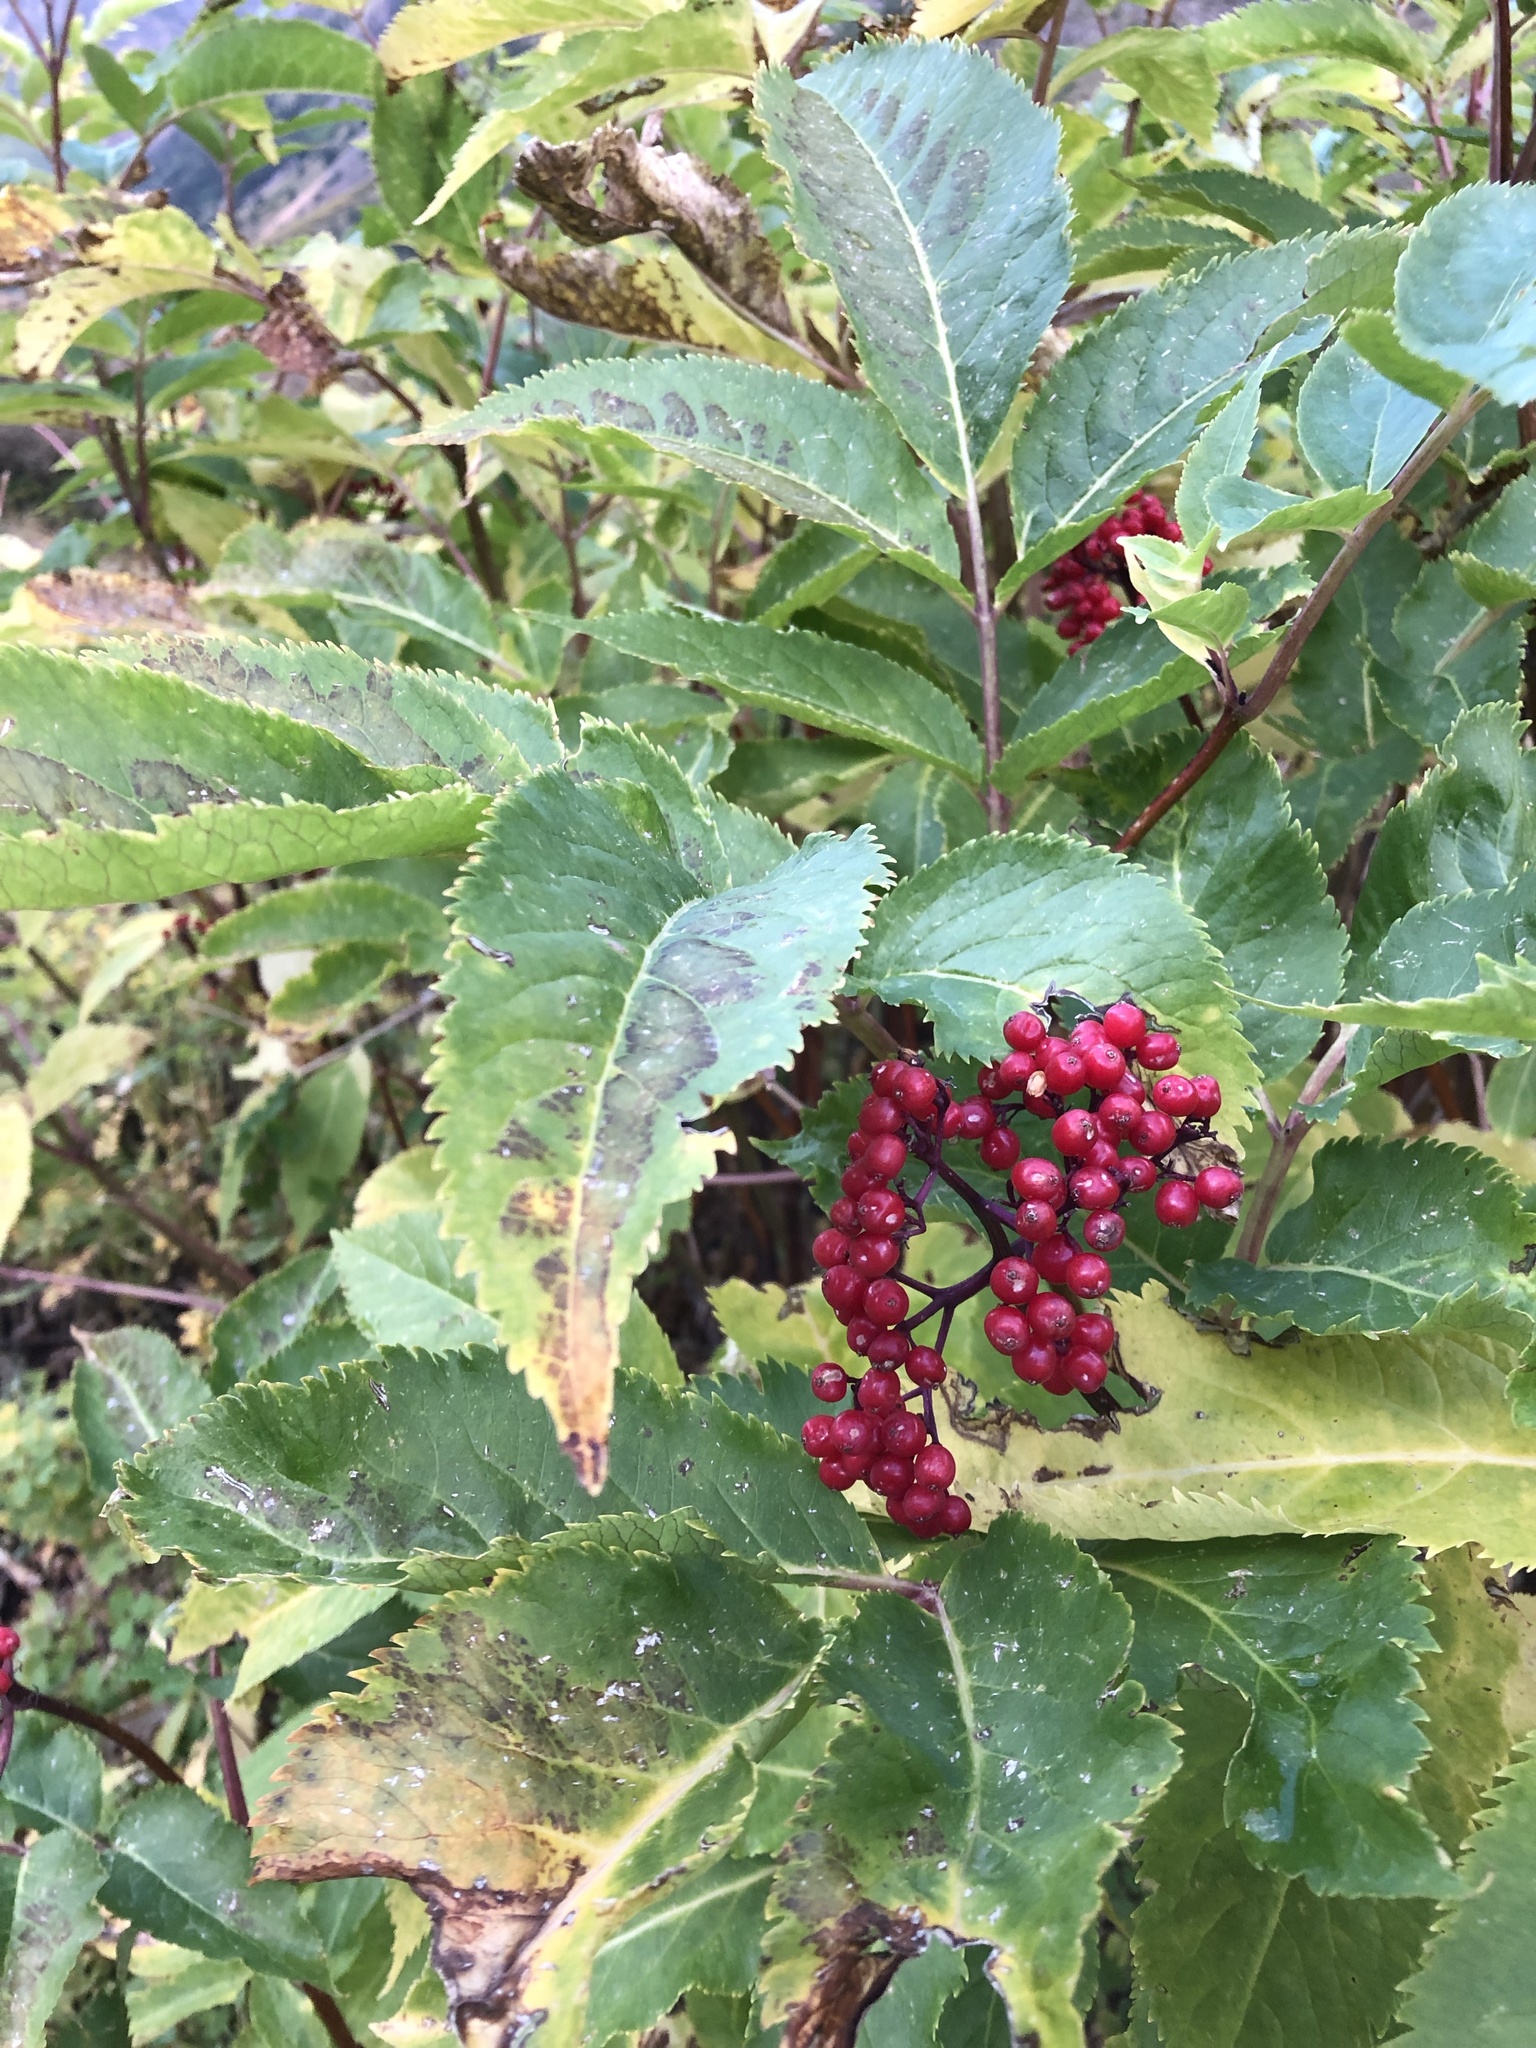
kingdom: Plantae
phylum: Tracheophyta
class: Magnoliopsida
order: Dipsacales
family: Viburnaceae
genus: Sambucus
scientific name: Sambucus racemosa
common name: Red-berried elder
